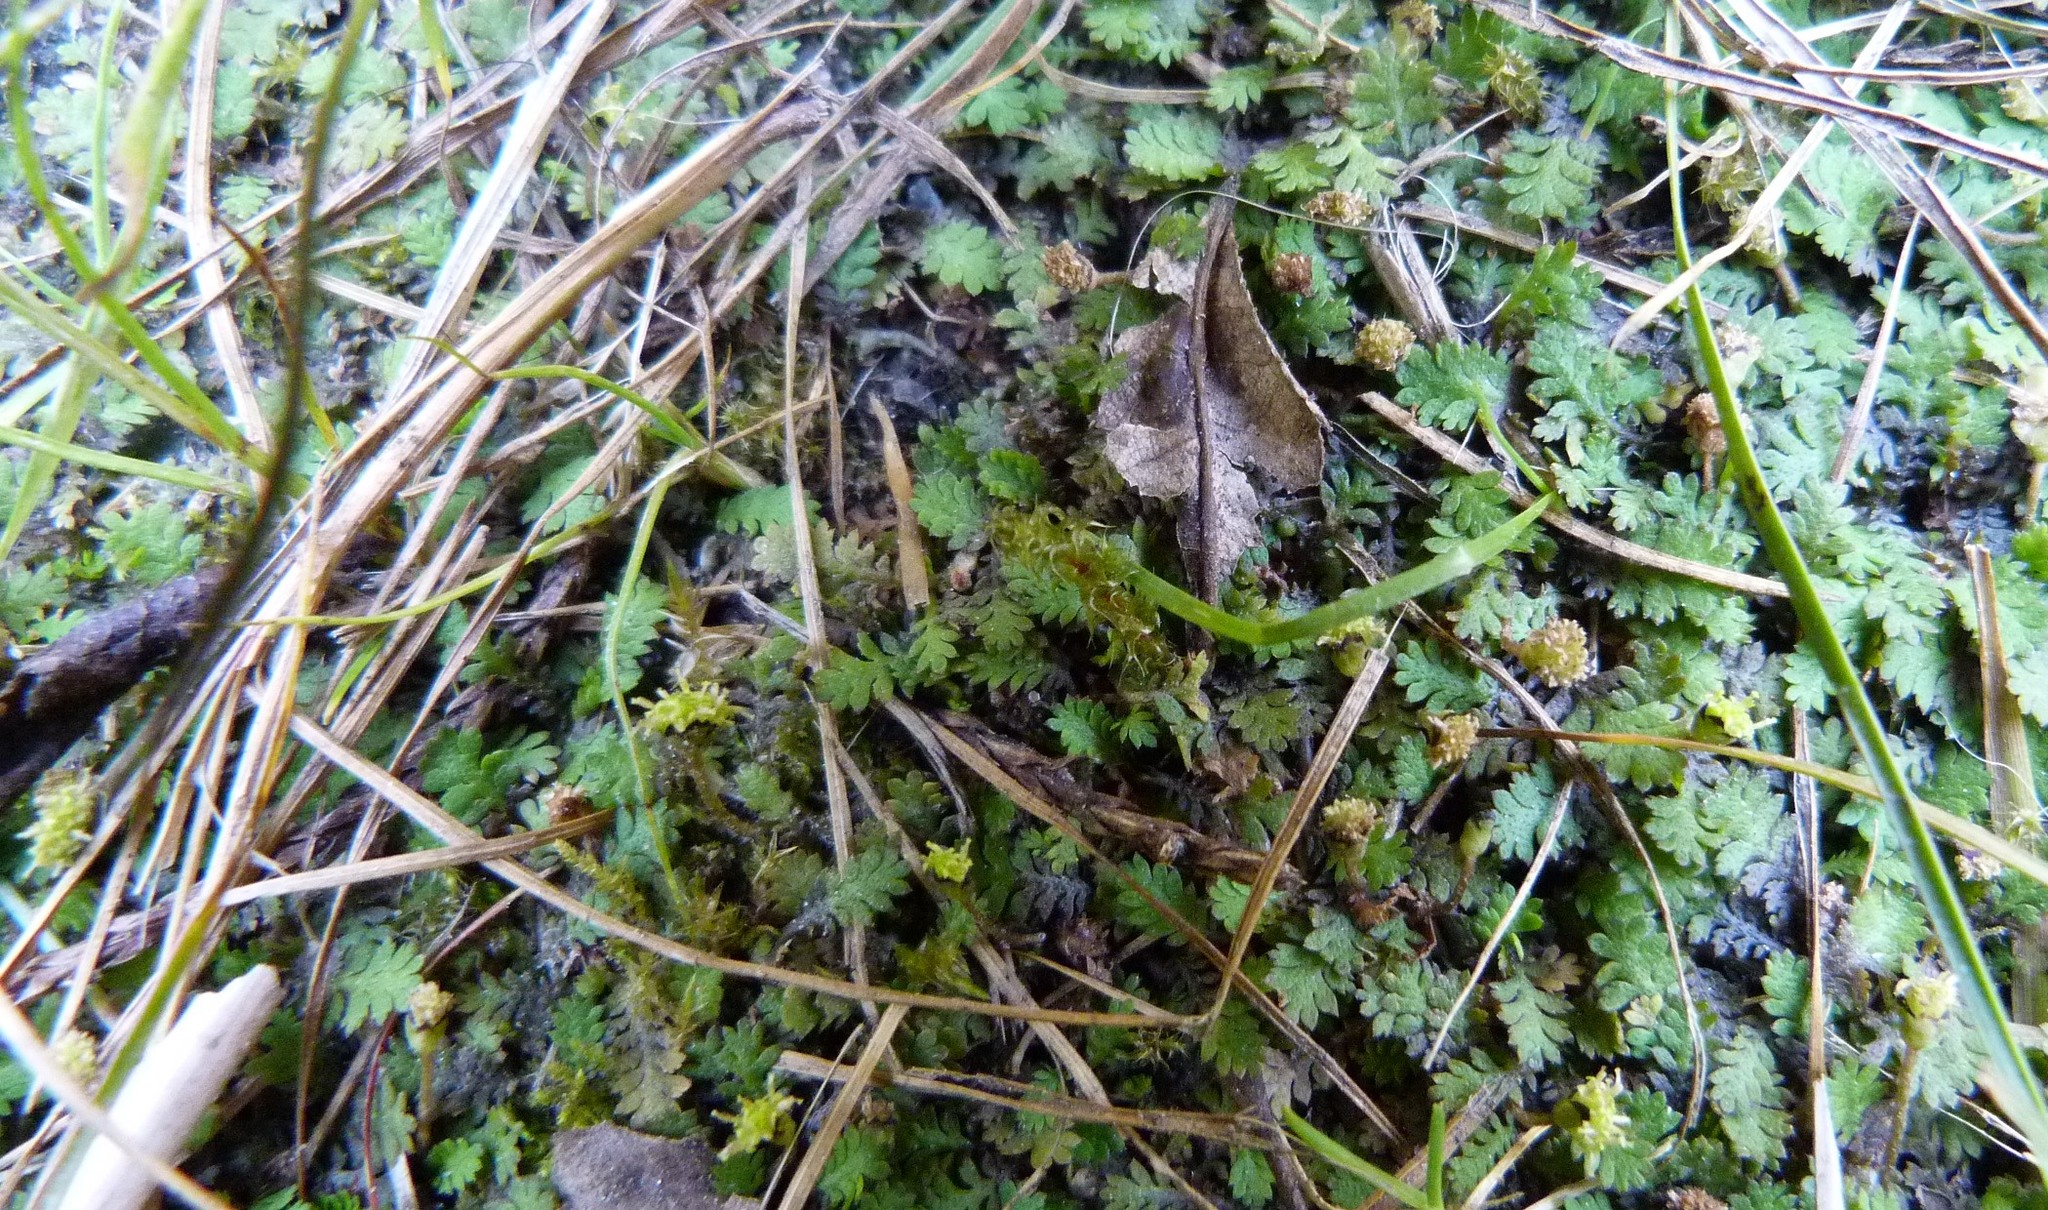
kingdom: Plantae
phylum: Tracheophyta
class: Magnoliopsida
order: Asterales
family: Asteraceae
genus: Leptinella
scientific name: Leptinella dispersa
